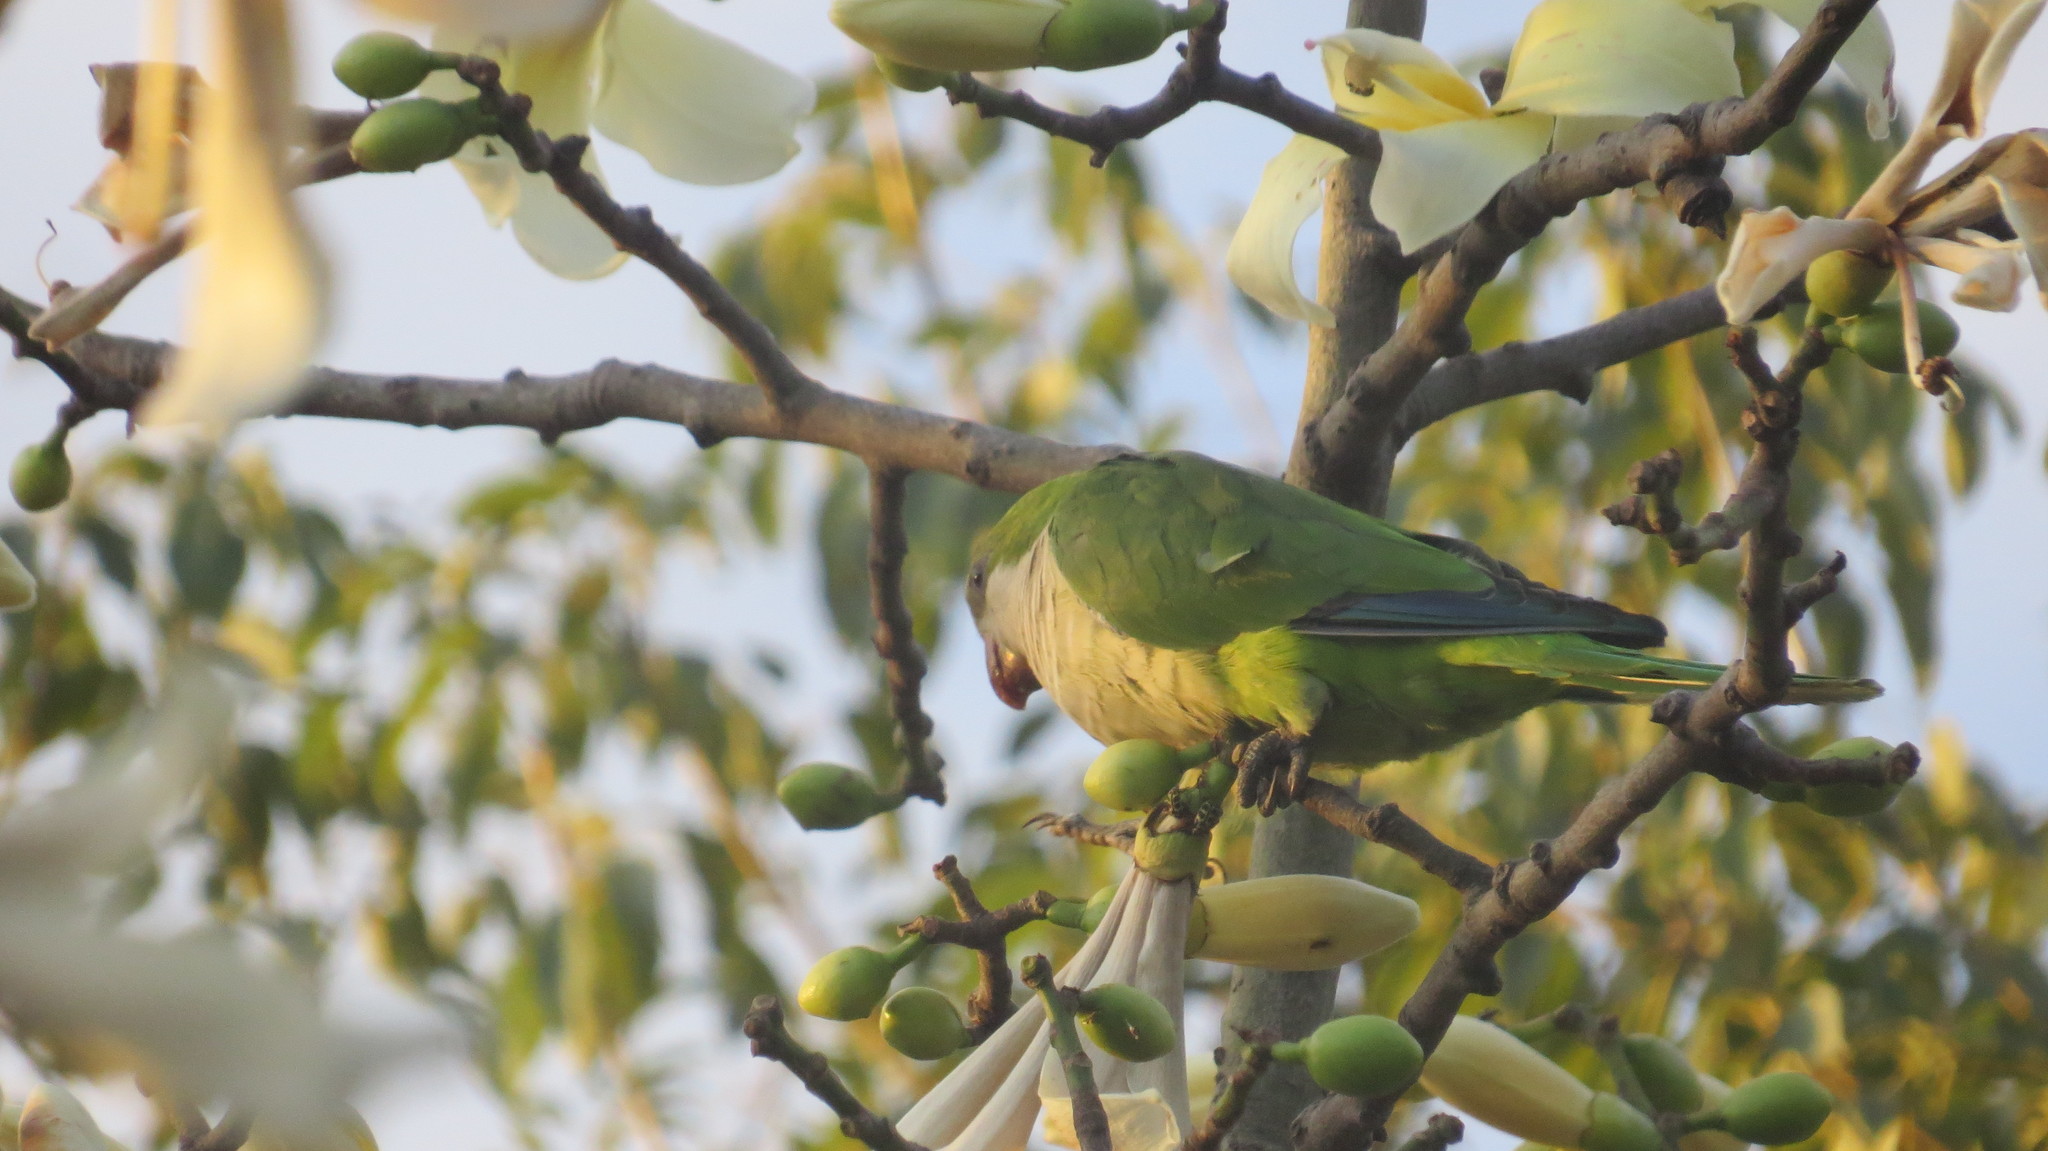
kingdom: Animalia
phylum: Chordata
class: Aves
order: Psittaciformes
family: Psittacidae
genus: Myiopsitta
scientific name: Myiopsitta monachus
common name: Monk parakeet
